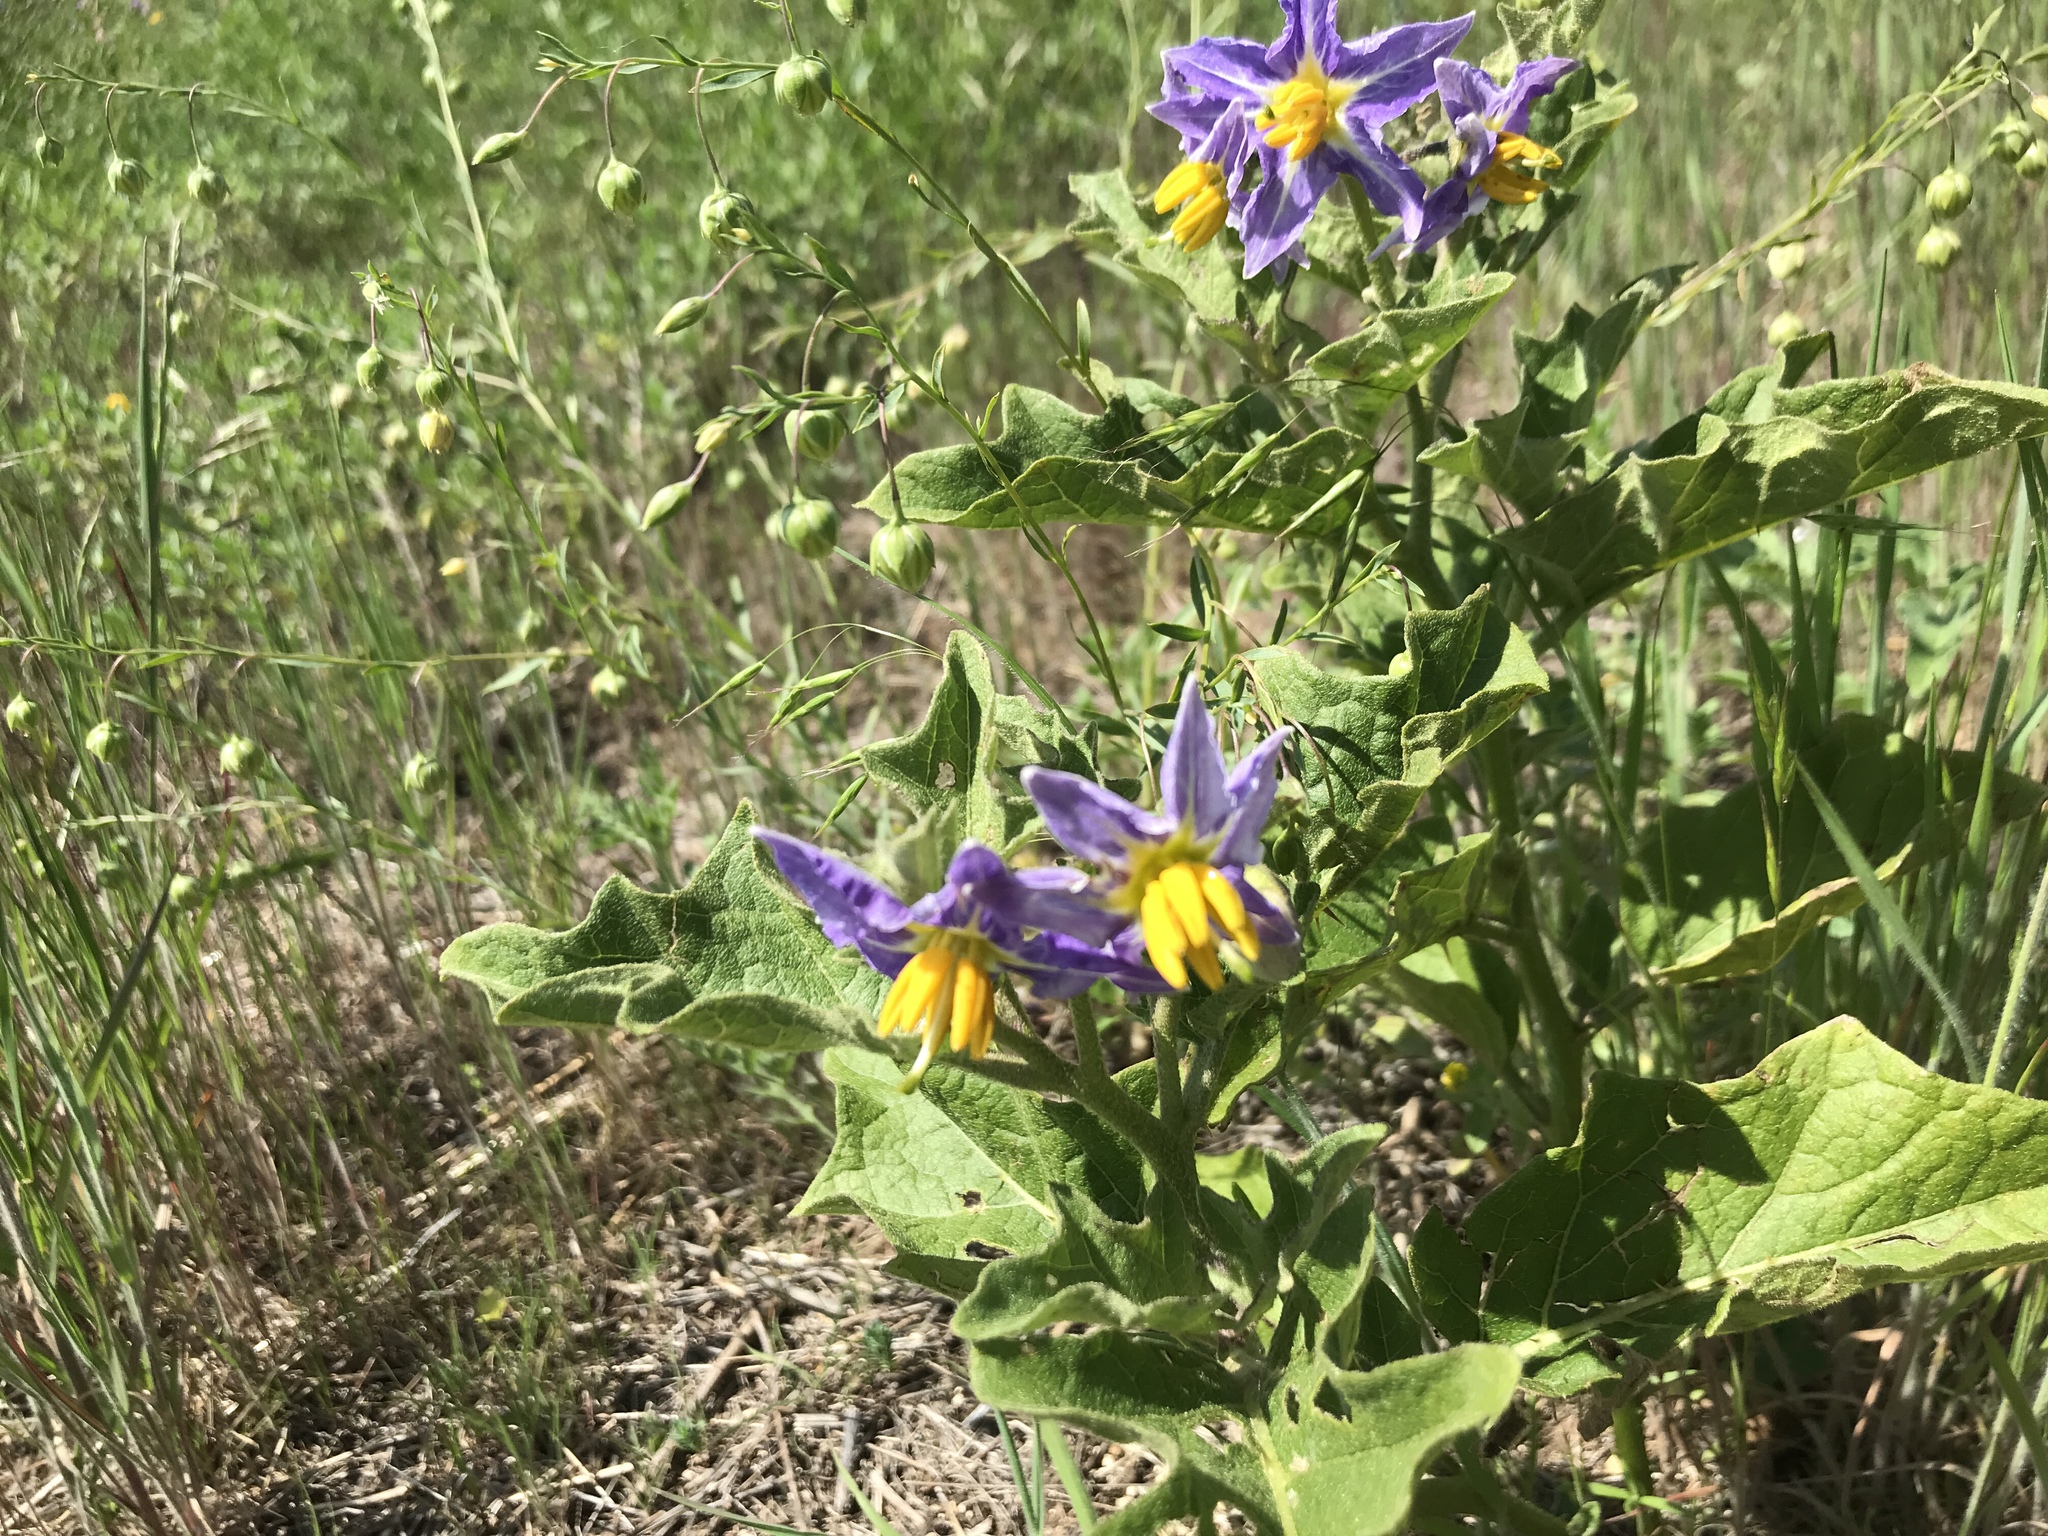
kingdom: Plantae
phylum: Tracheophyta
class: Magnoliopsida
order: Solanales
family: Solanaceae
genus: Solanum
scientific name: Solanum dimidiatum
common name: Carolina horse-nettle
